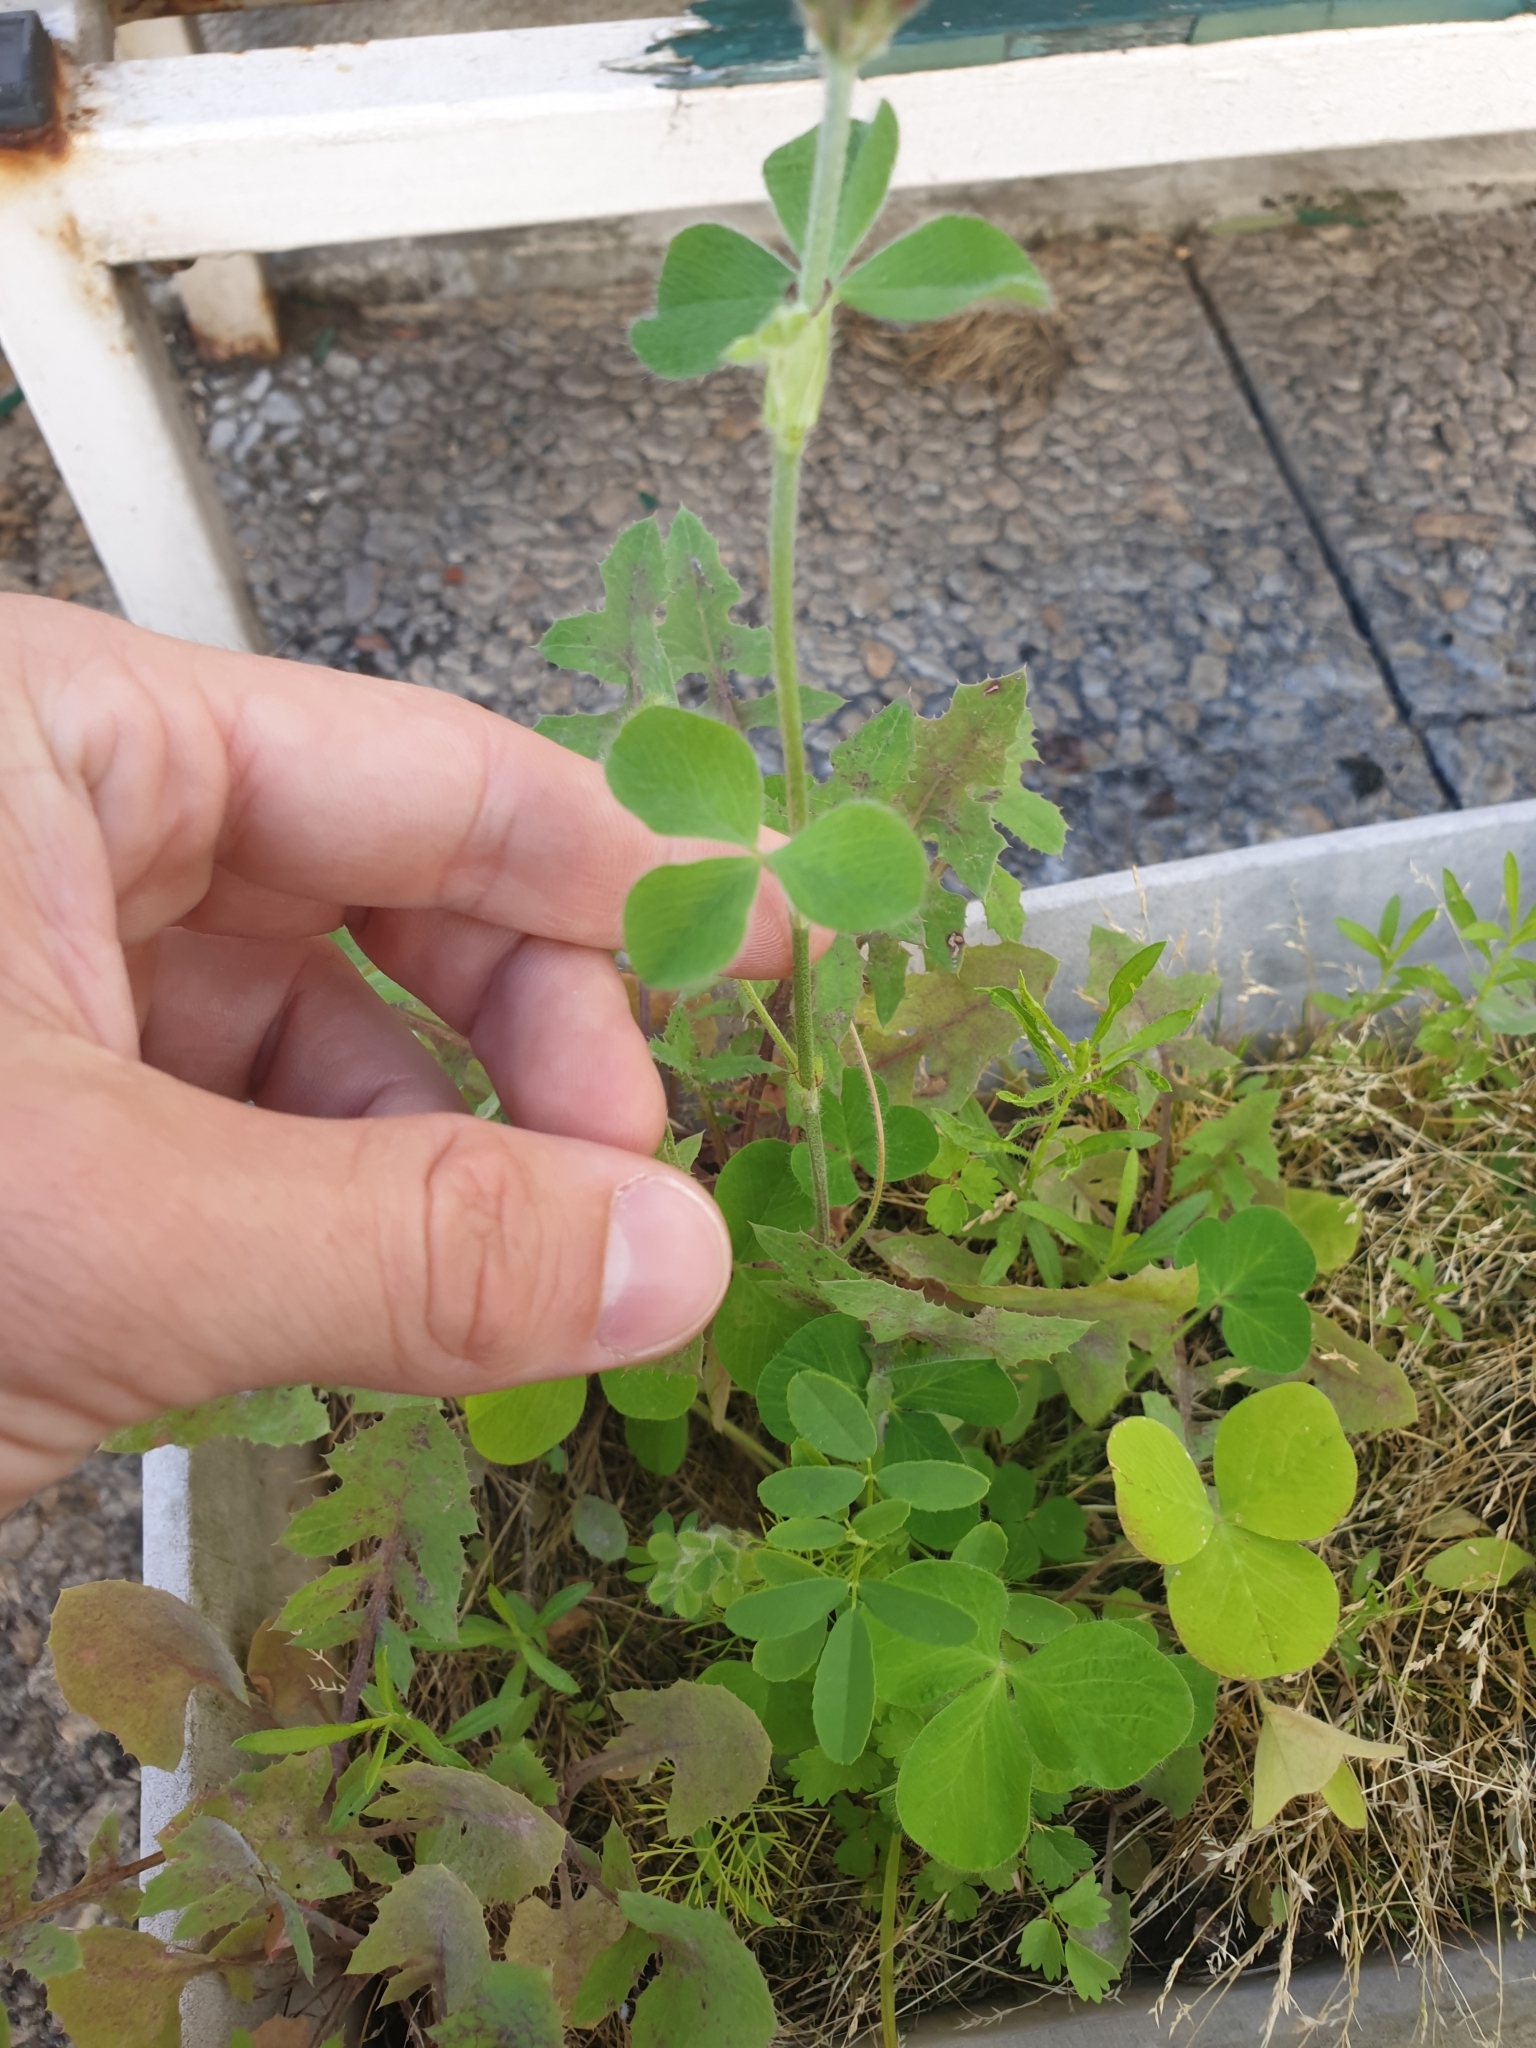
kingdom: Plantae
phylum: Tracheophyta
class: Magnoliopsida
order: Fabales
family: Fabaceae
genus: Trifolium
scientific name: Trifolium incarnatum
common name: Crimson clover
